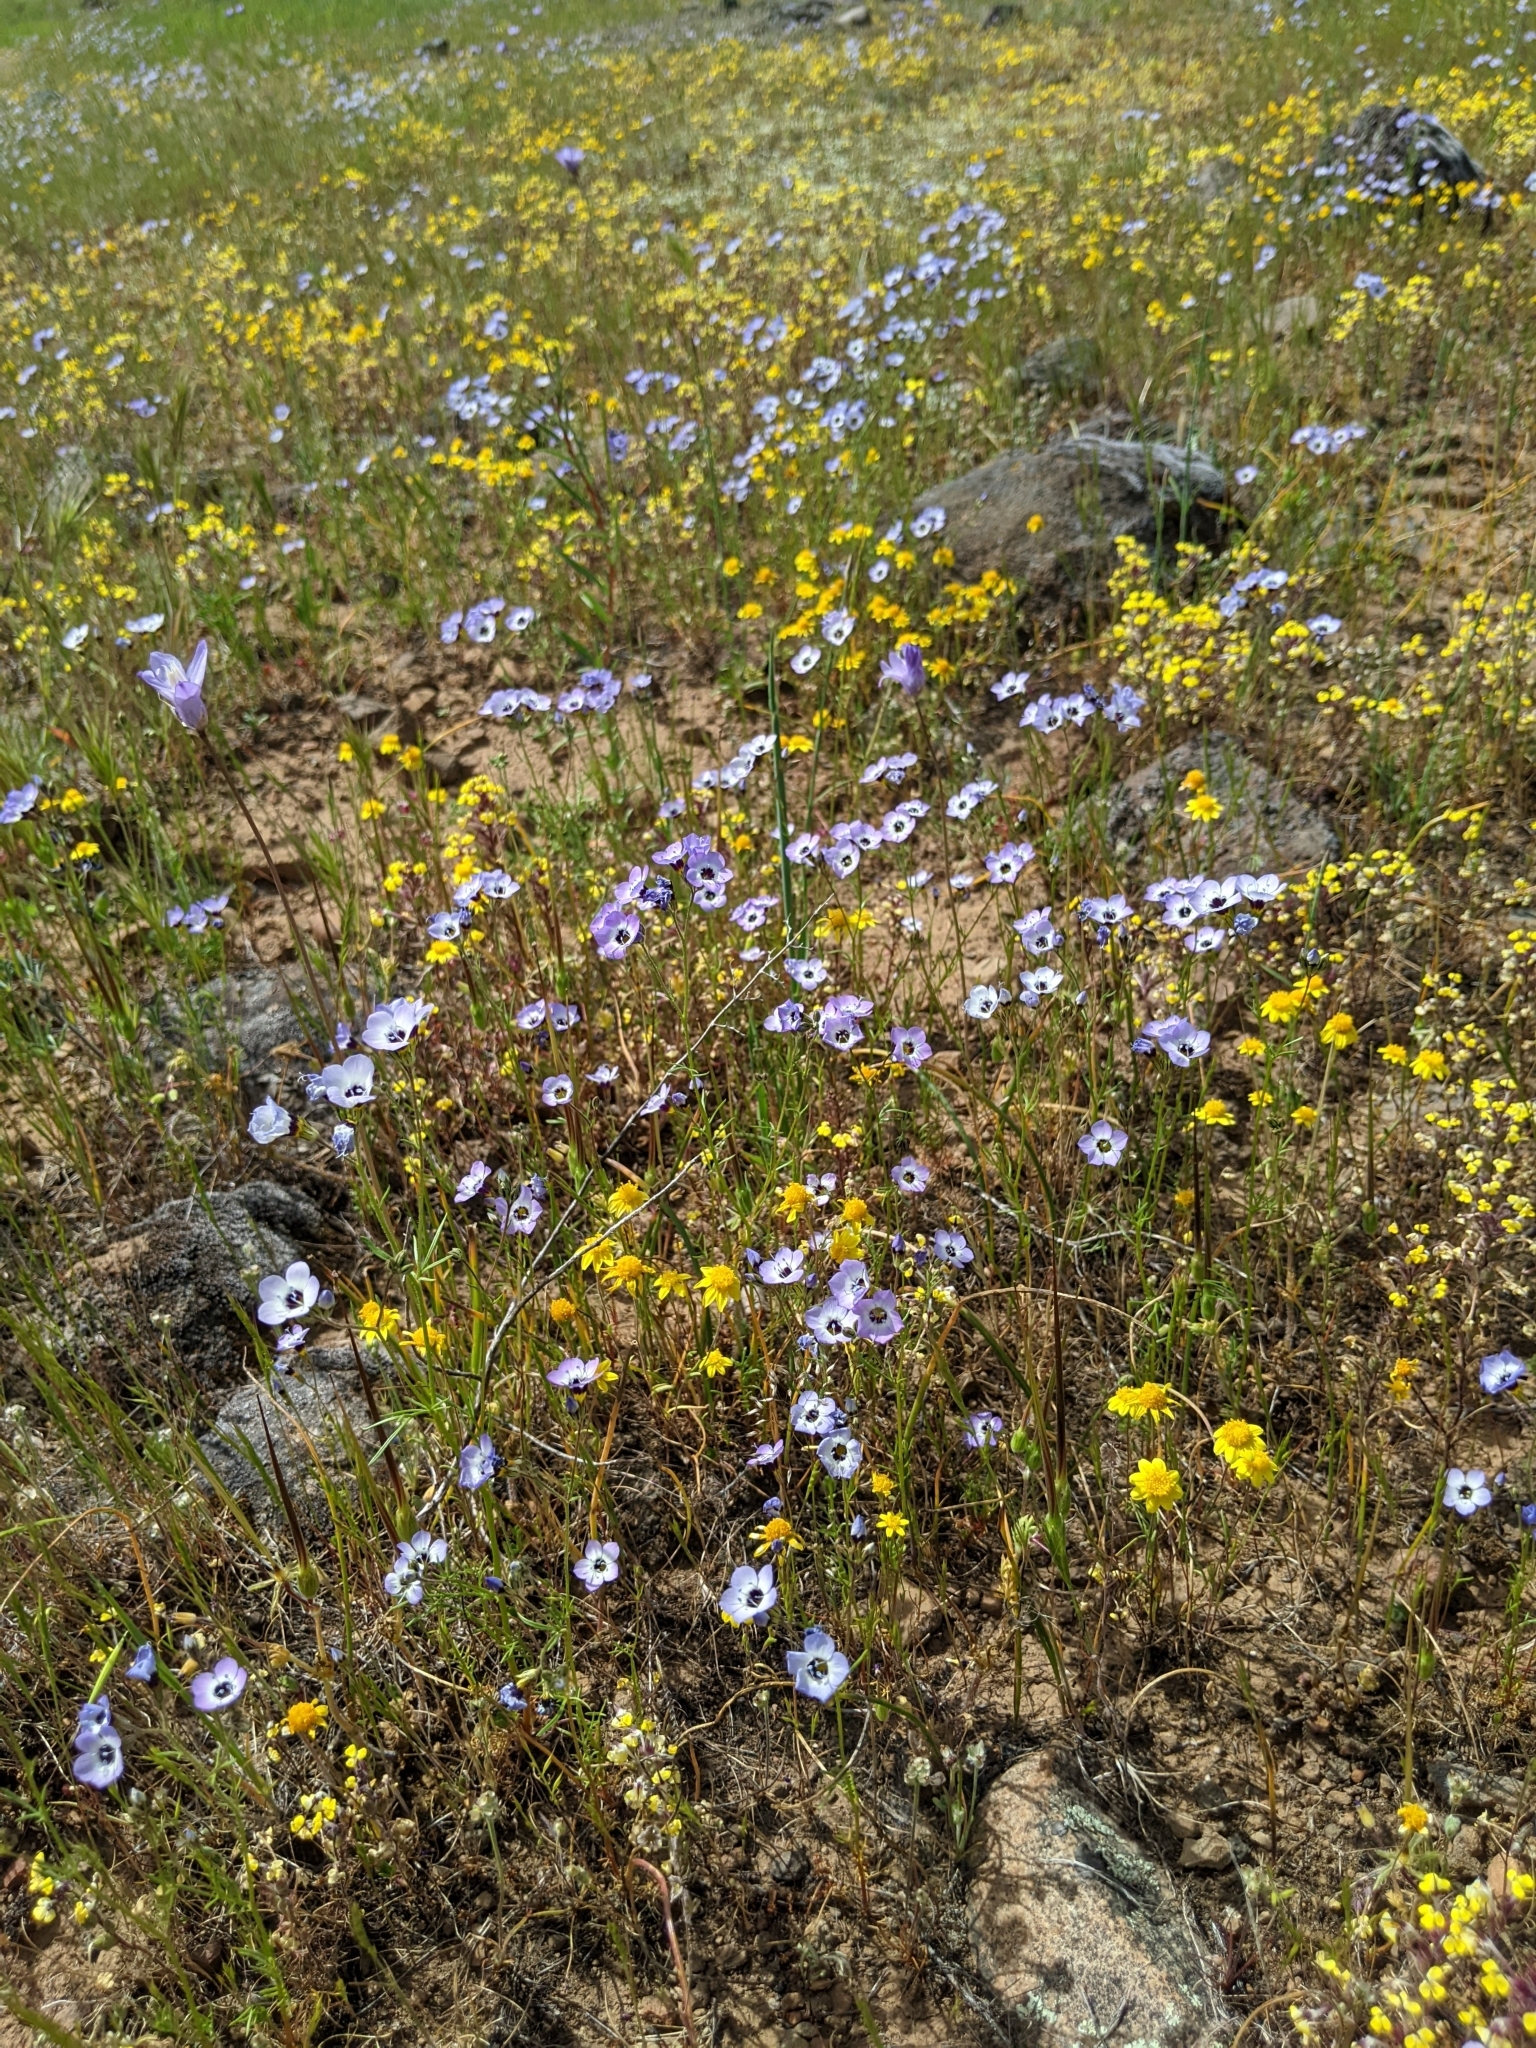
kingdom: Plantae
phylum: Tracheophyta
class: Magnoliopsida
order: Ericales
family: Polemoniaceae
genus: Gilia
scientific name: Gilia tricolor
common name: Bird's-eyes
